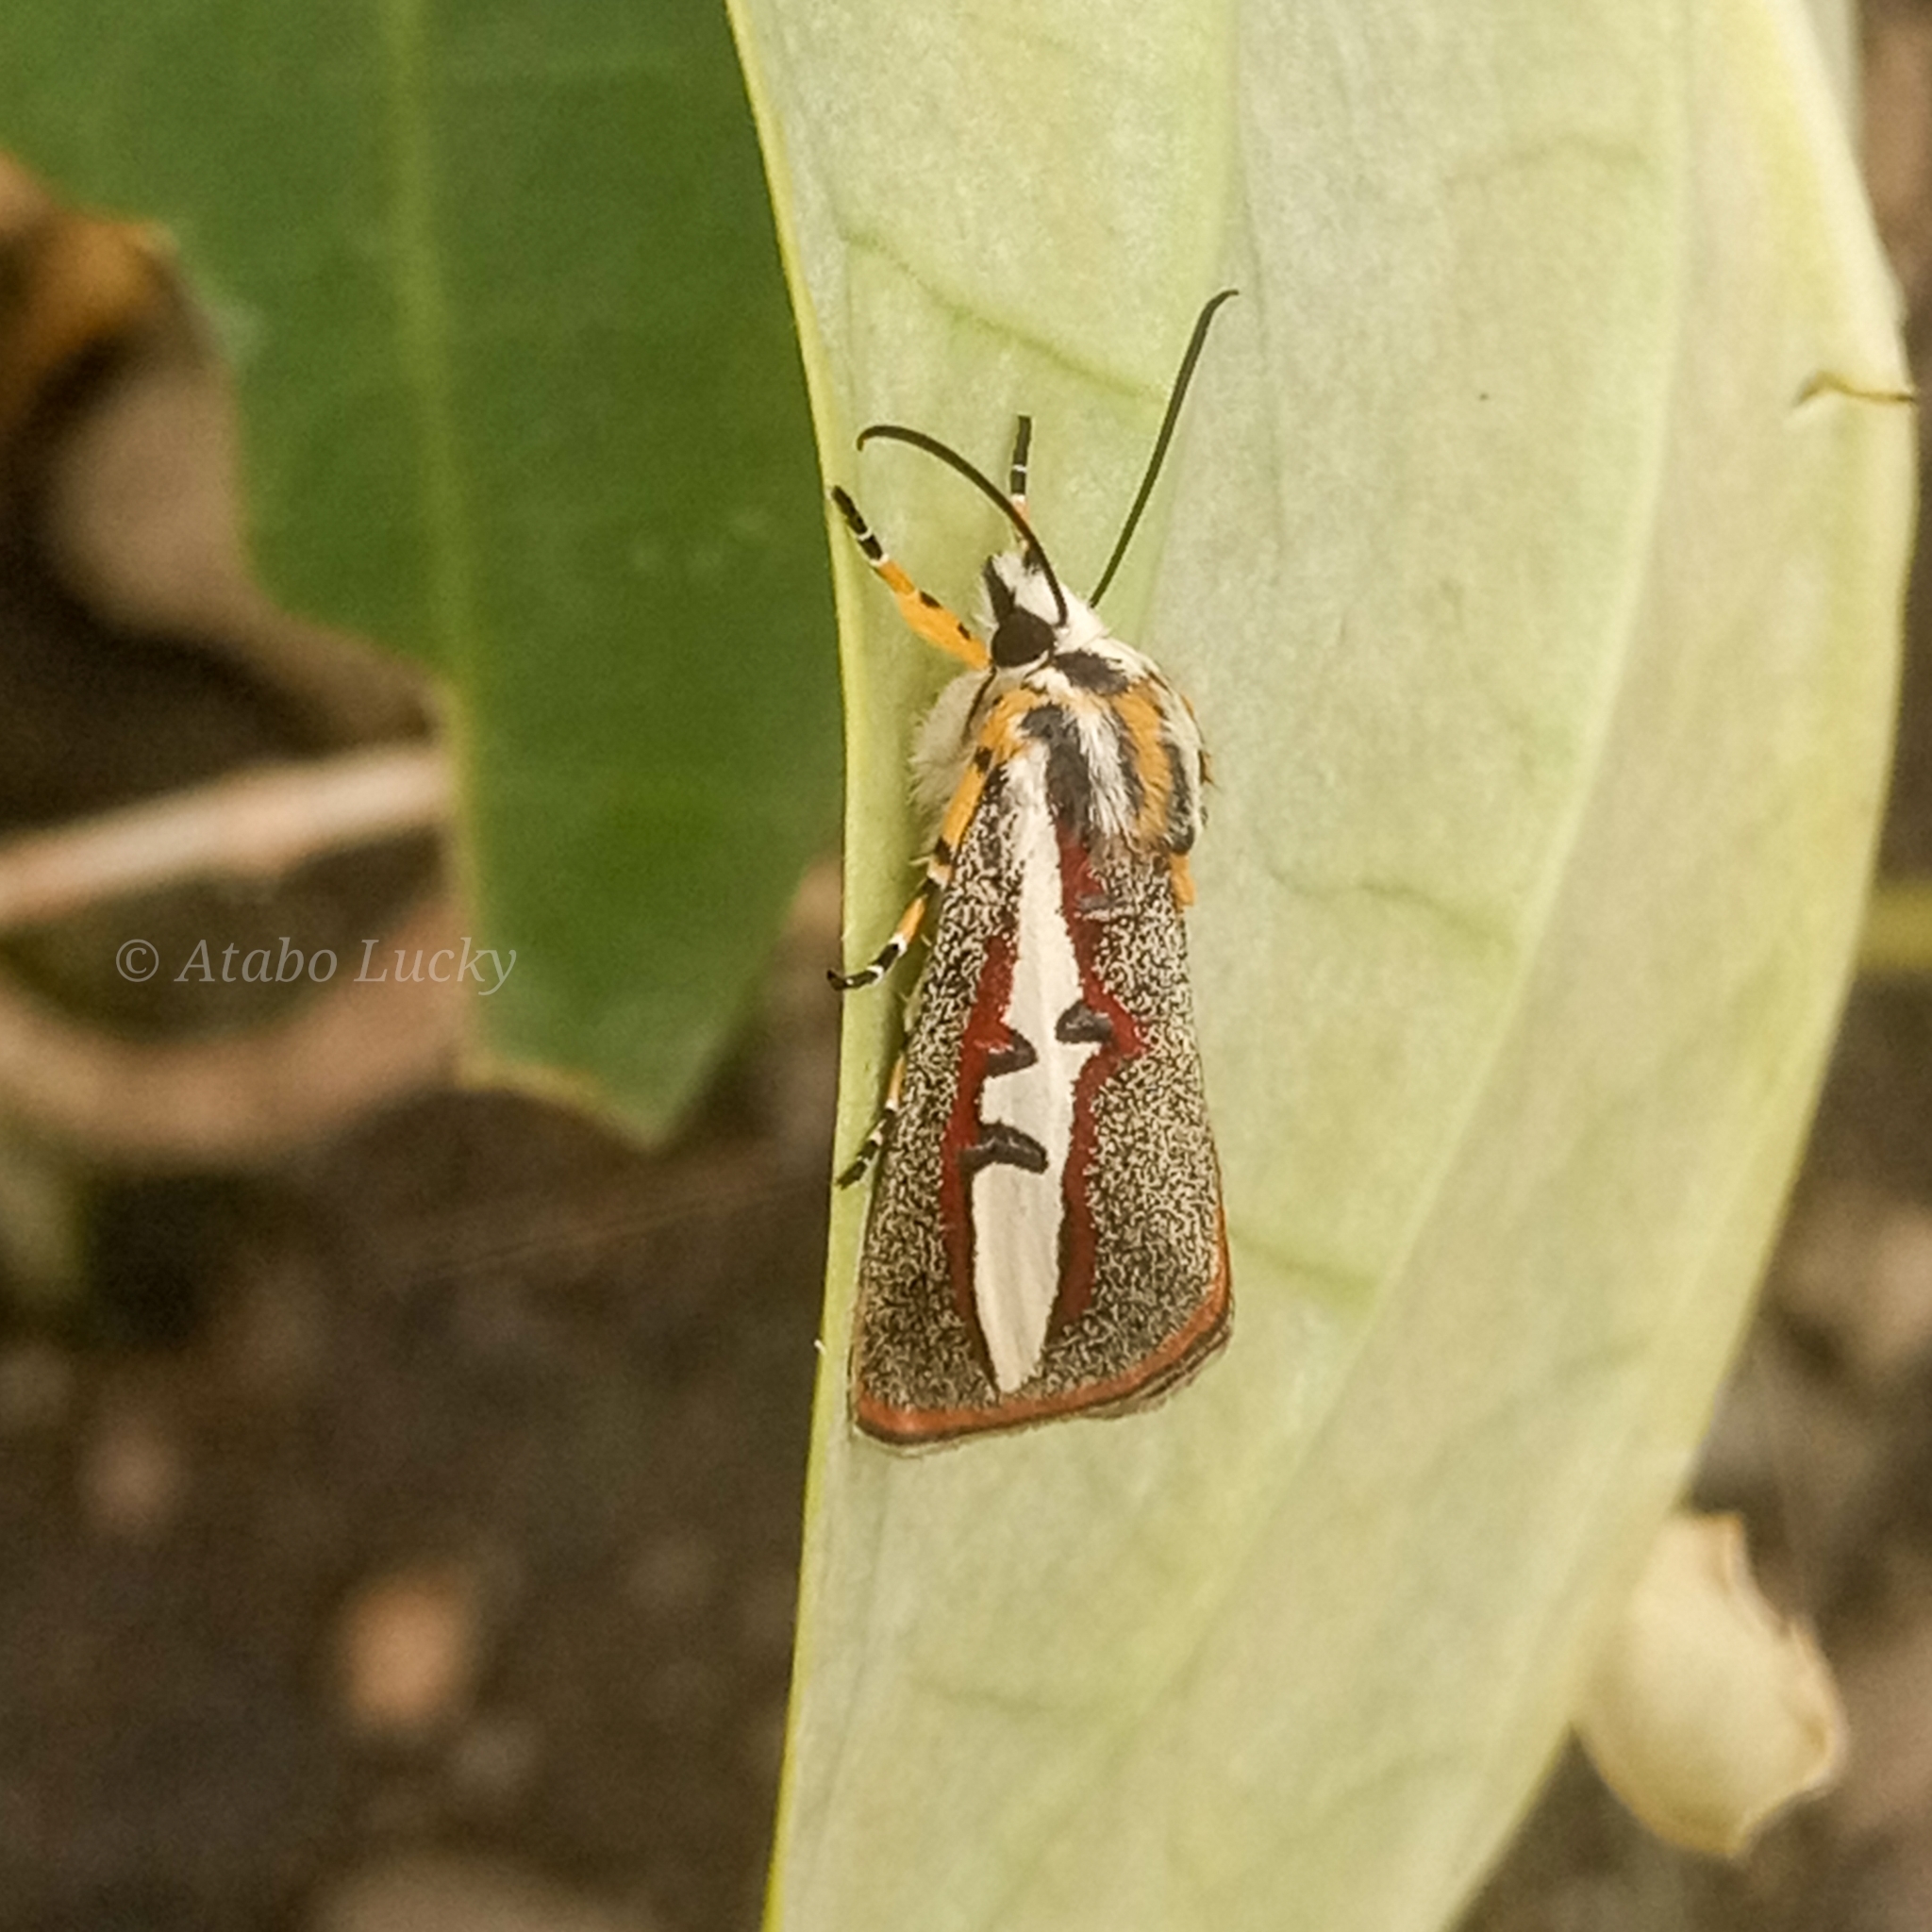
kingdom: Animalia
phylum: Arthropoda
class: Insecta
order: Lepidoptera
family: Noctuidae
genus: Aegocera
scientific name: Aegocera rectilinea
